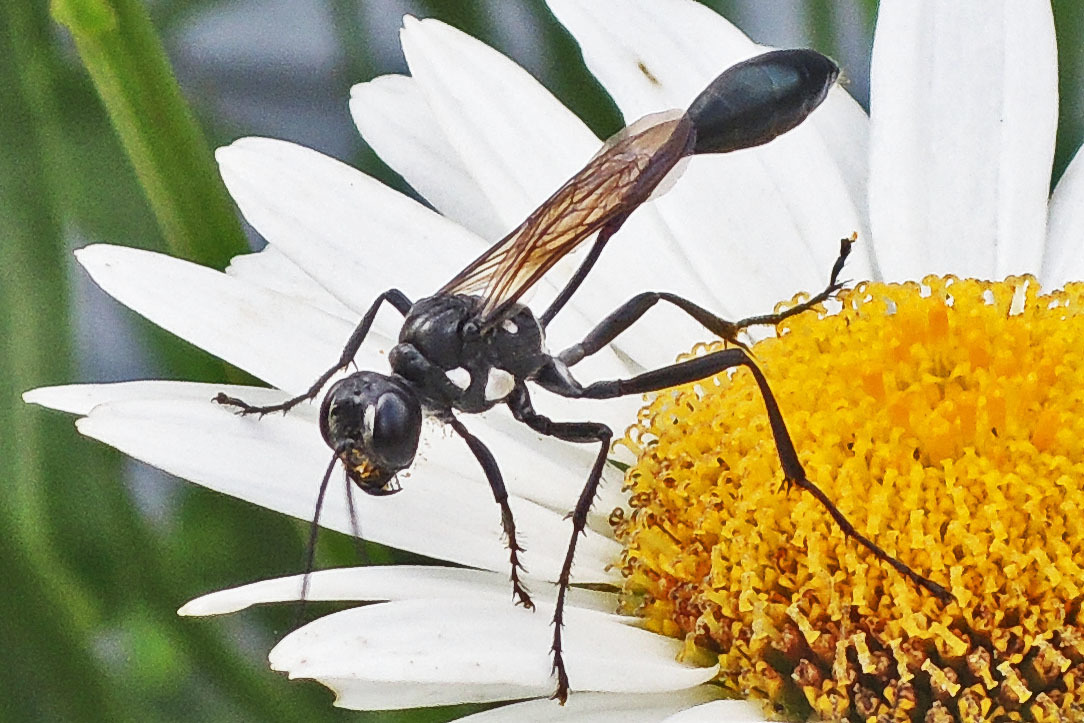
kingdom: Animalia
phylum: Arthropoda
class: Insecta
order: Hymenoptera
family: Sphecidae
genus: Eremnophila
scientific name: Eremnophila aureonotata
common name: Gold-marked thread-waisted wasp
